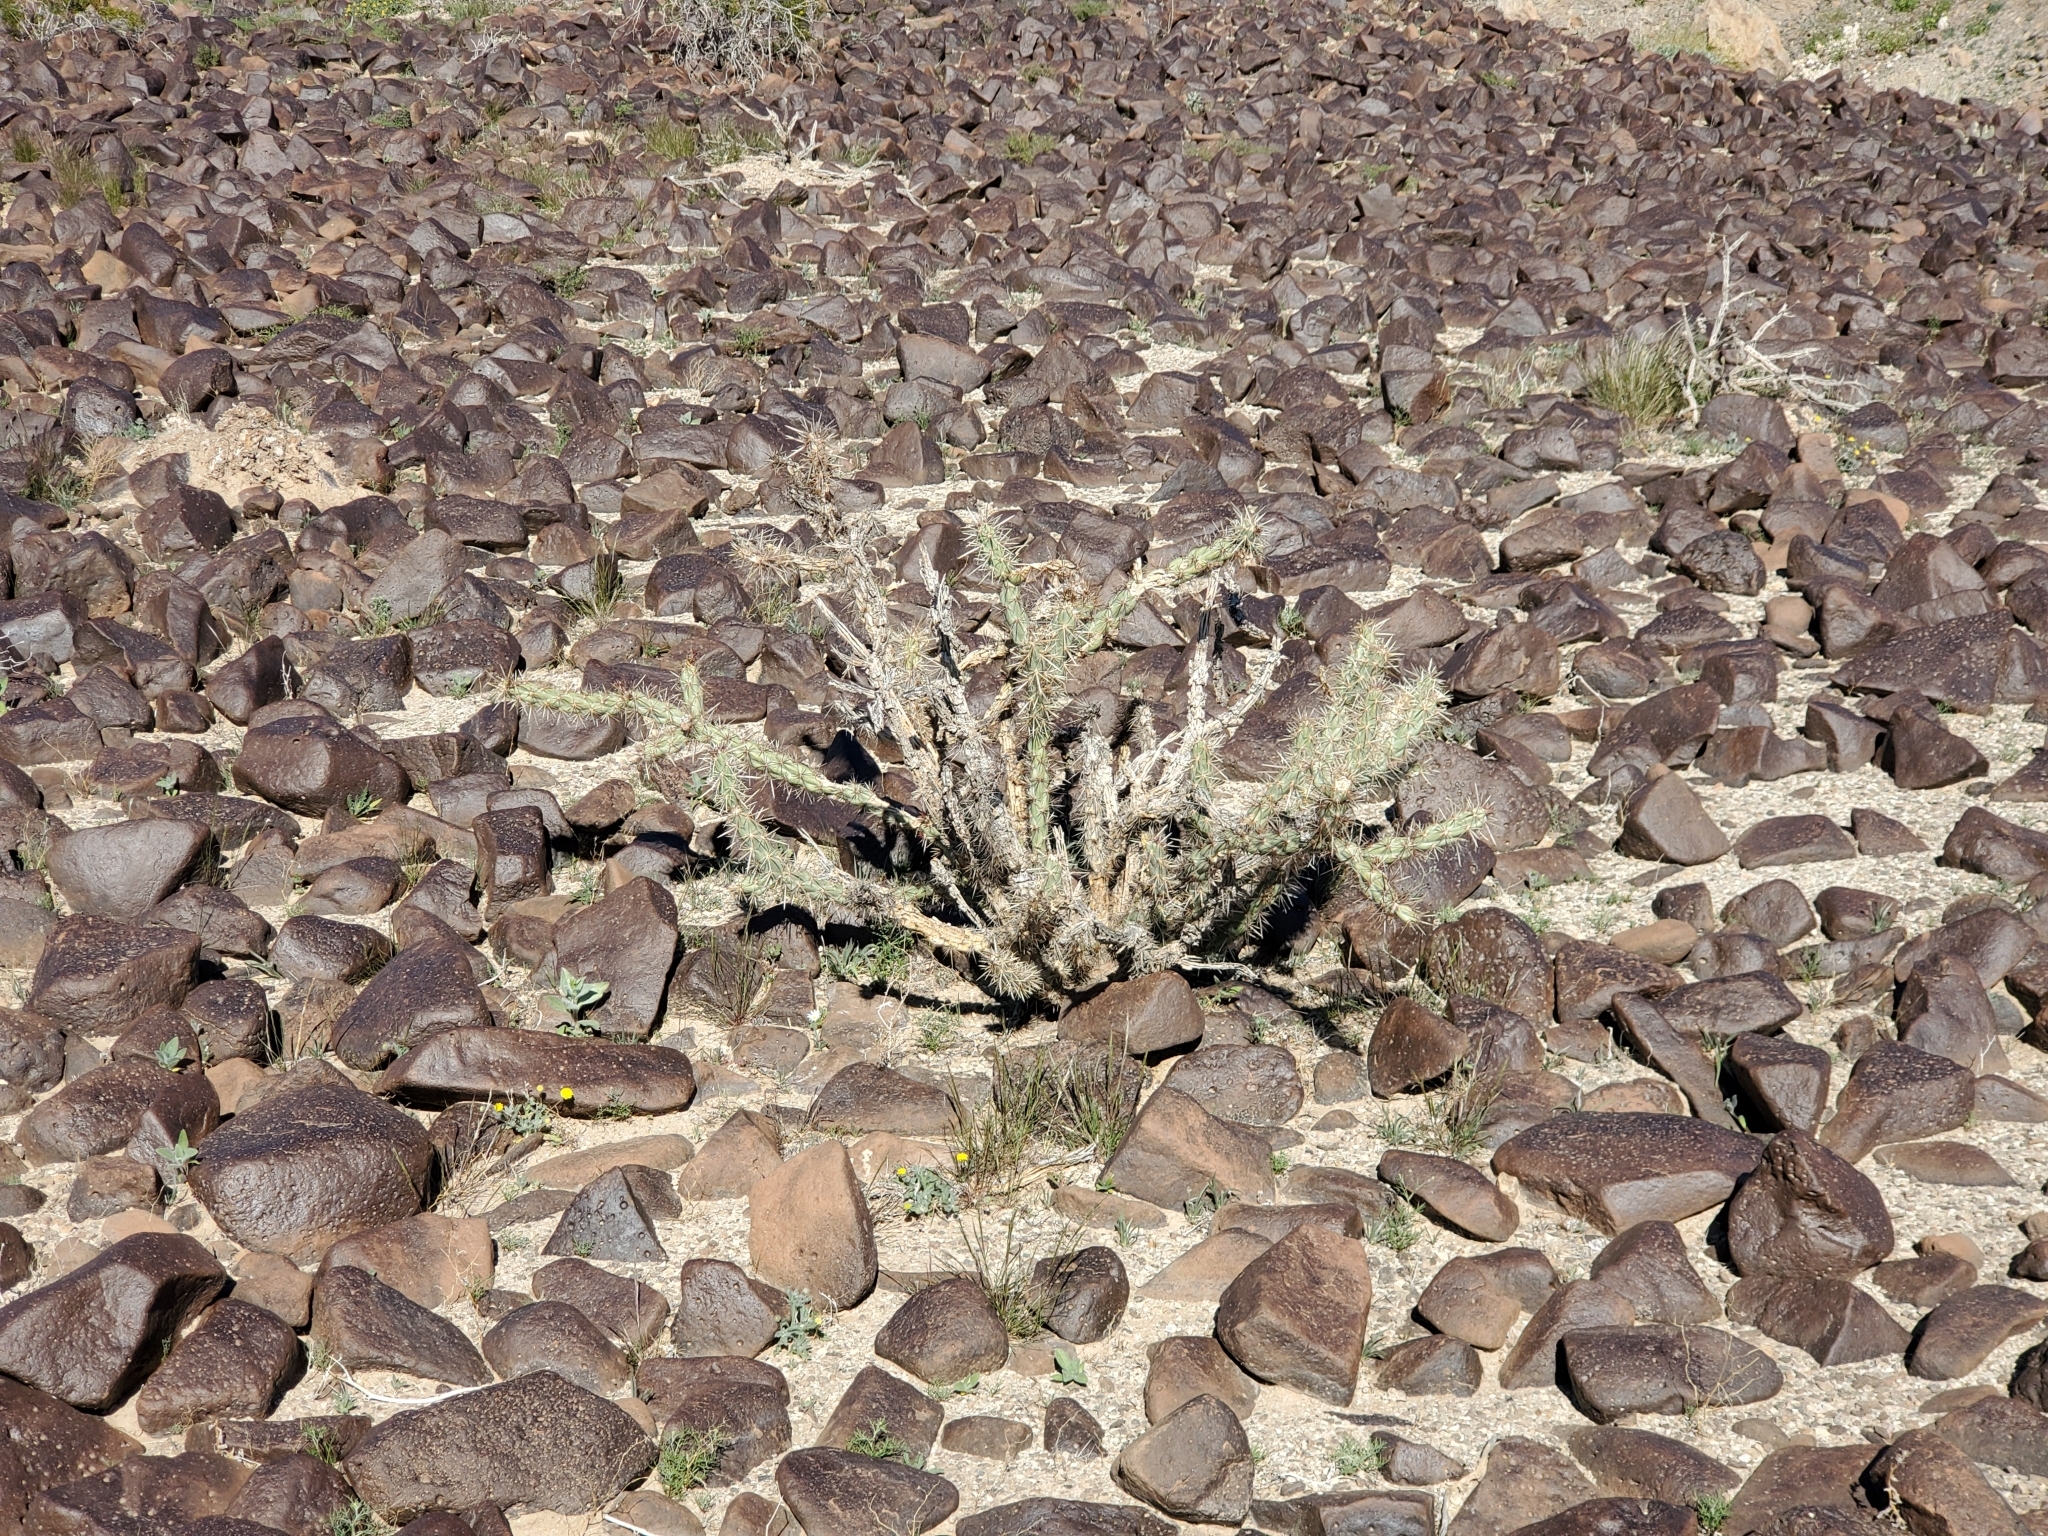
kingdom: Plantae
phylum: Tracheophyta
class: Magnoliopsida
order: Caryophyllales
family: Cactaceae
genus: Cylindropuntia
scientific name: Cylindropuntia acanthocarpa
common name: Buckhorn cholla
